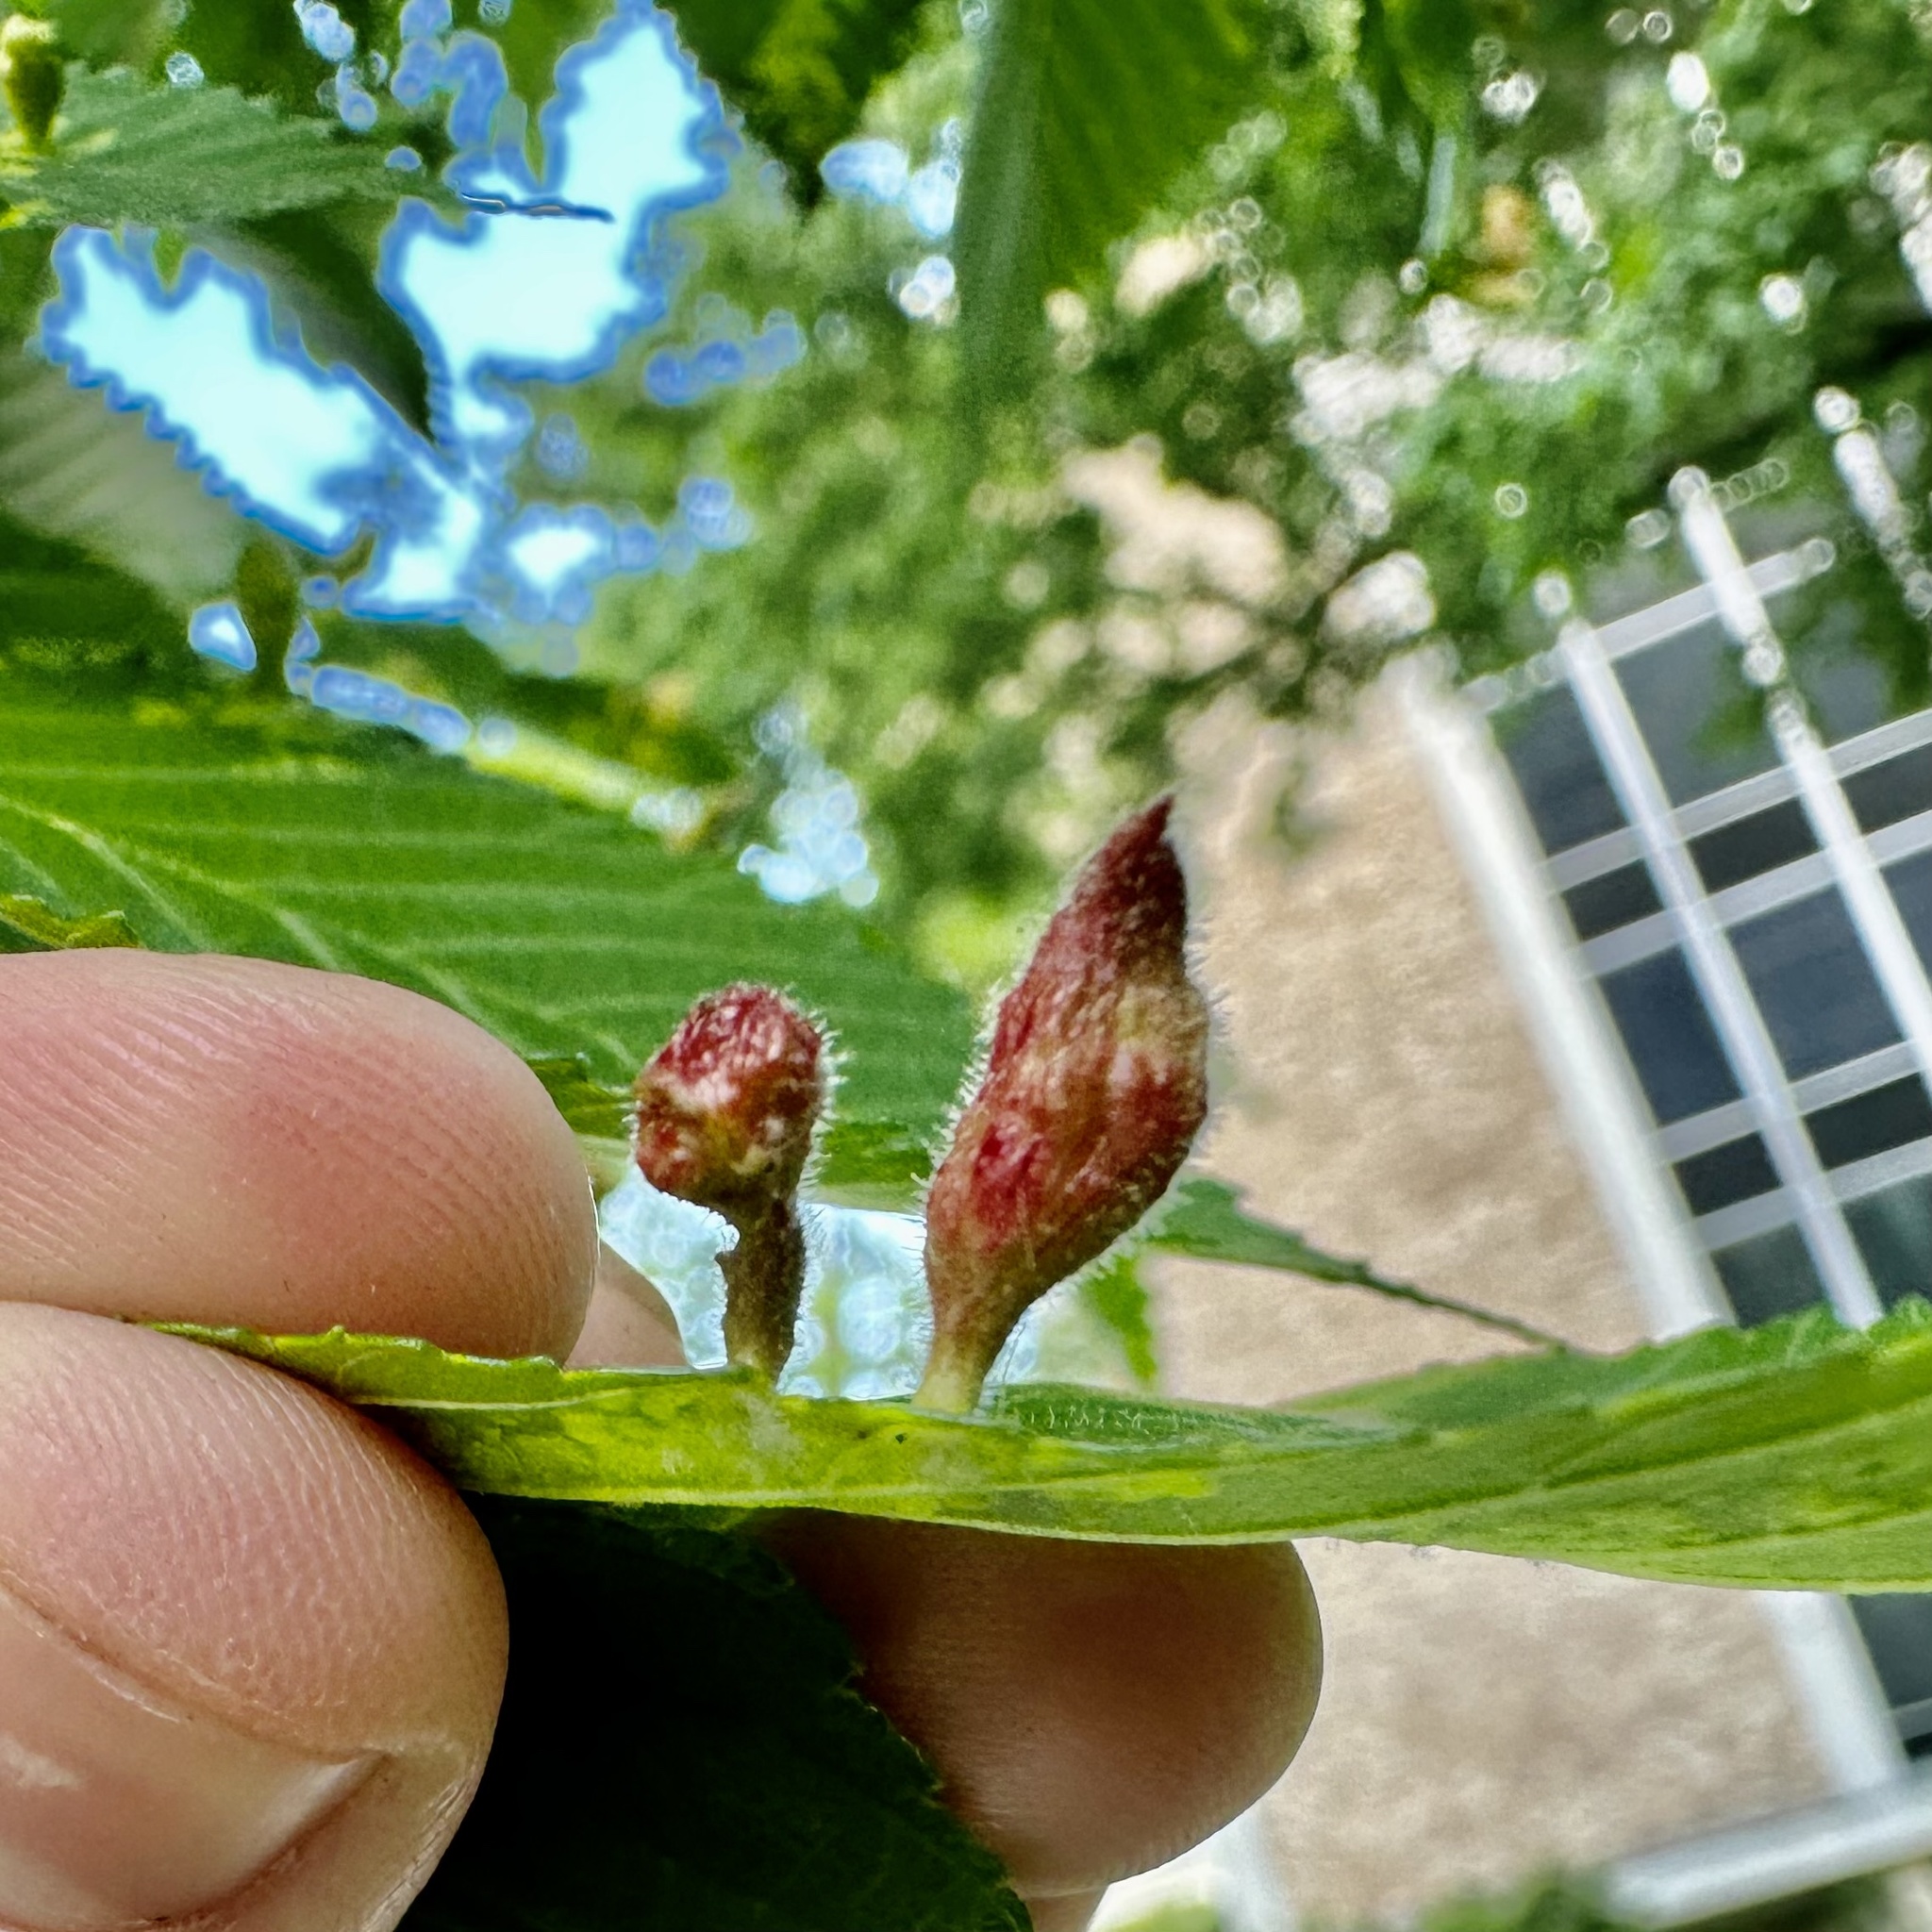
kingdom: Animalia
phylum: Arthropoda
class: Insecta
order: Hemiptera
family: Aphididae
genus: Tetraneura
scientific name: Tetraneura nigriabdominalis
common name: Aphid
